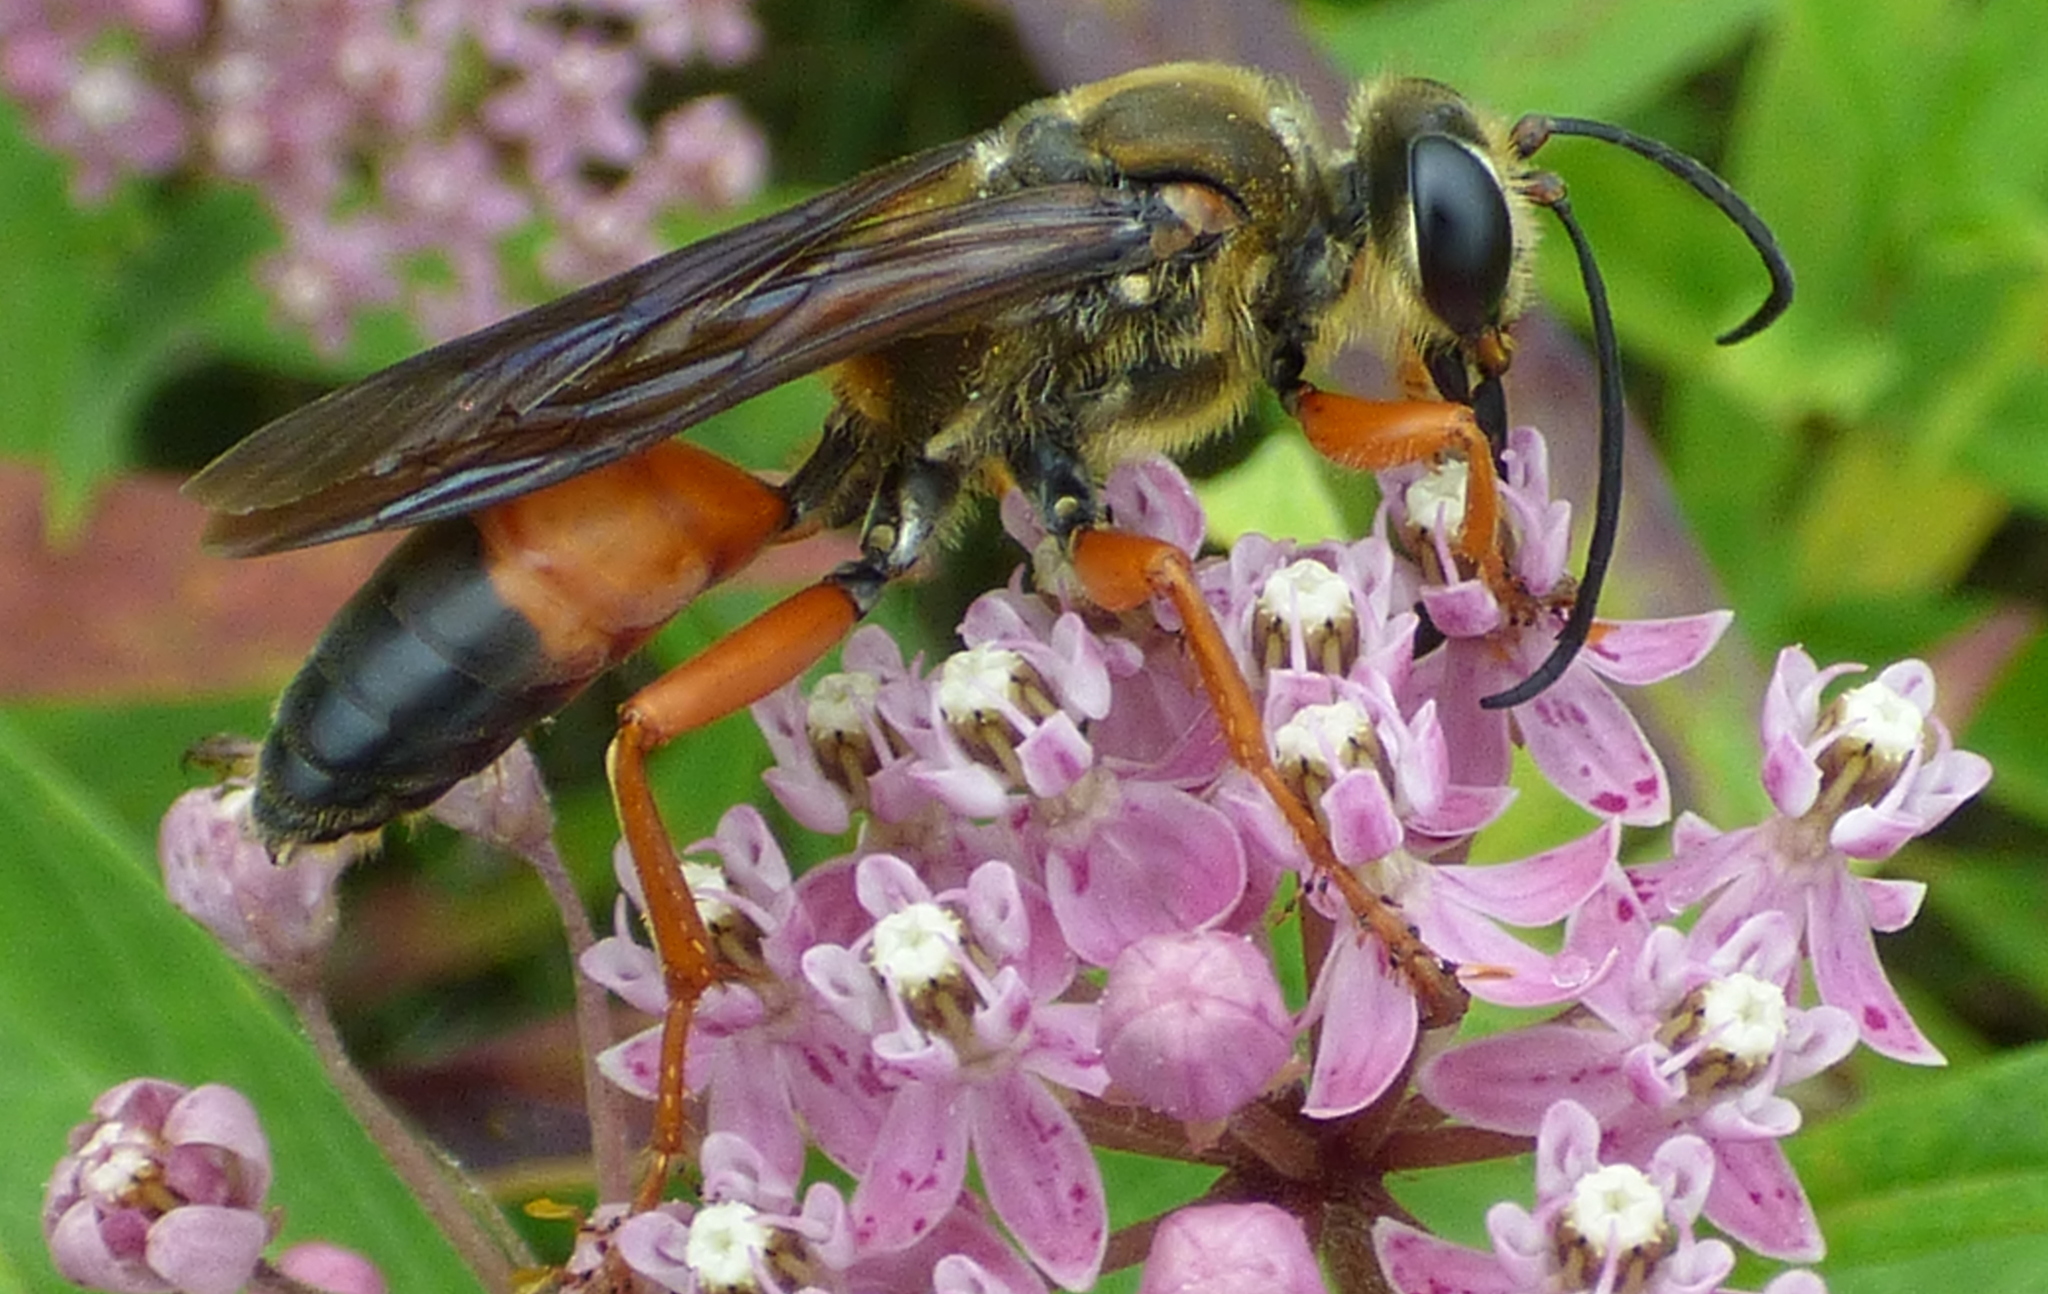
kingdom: Animalia
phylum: Arthropoda
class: Insecta
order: Hymenoptera
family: Sphecidae
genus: Sphex
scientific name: Sphex ichneumoneus
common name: Great golden digger wasp
